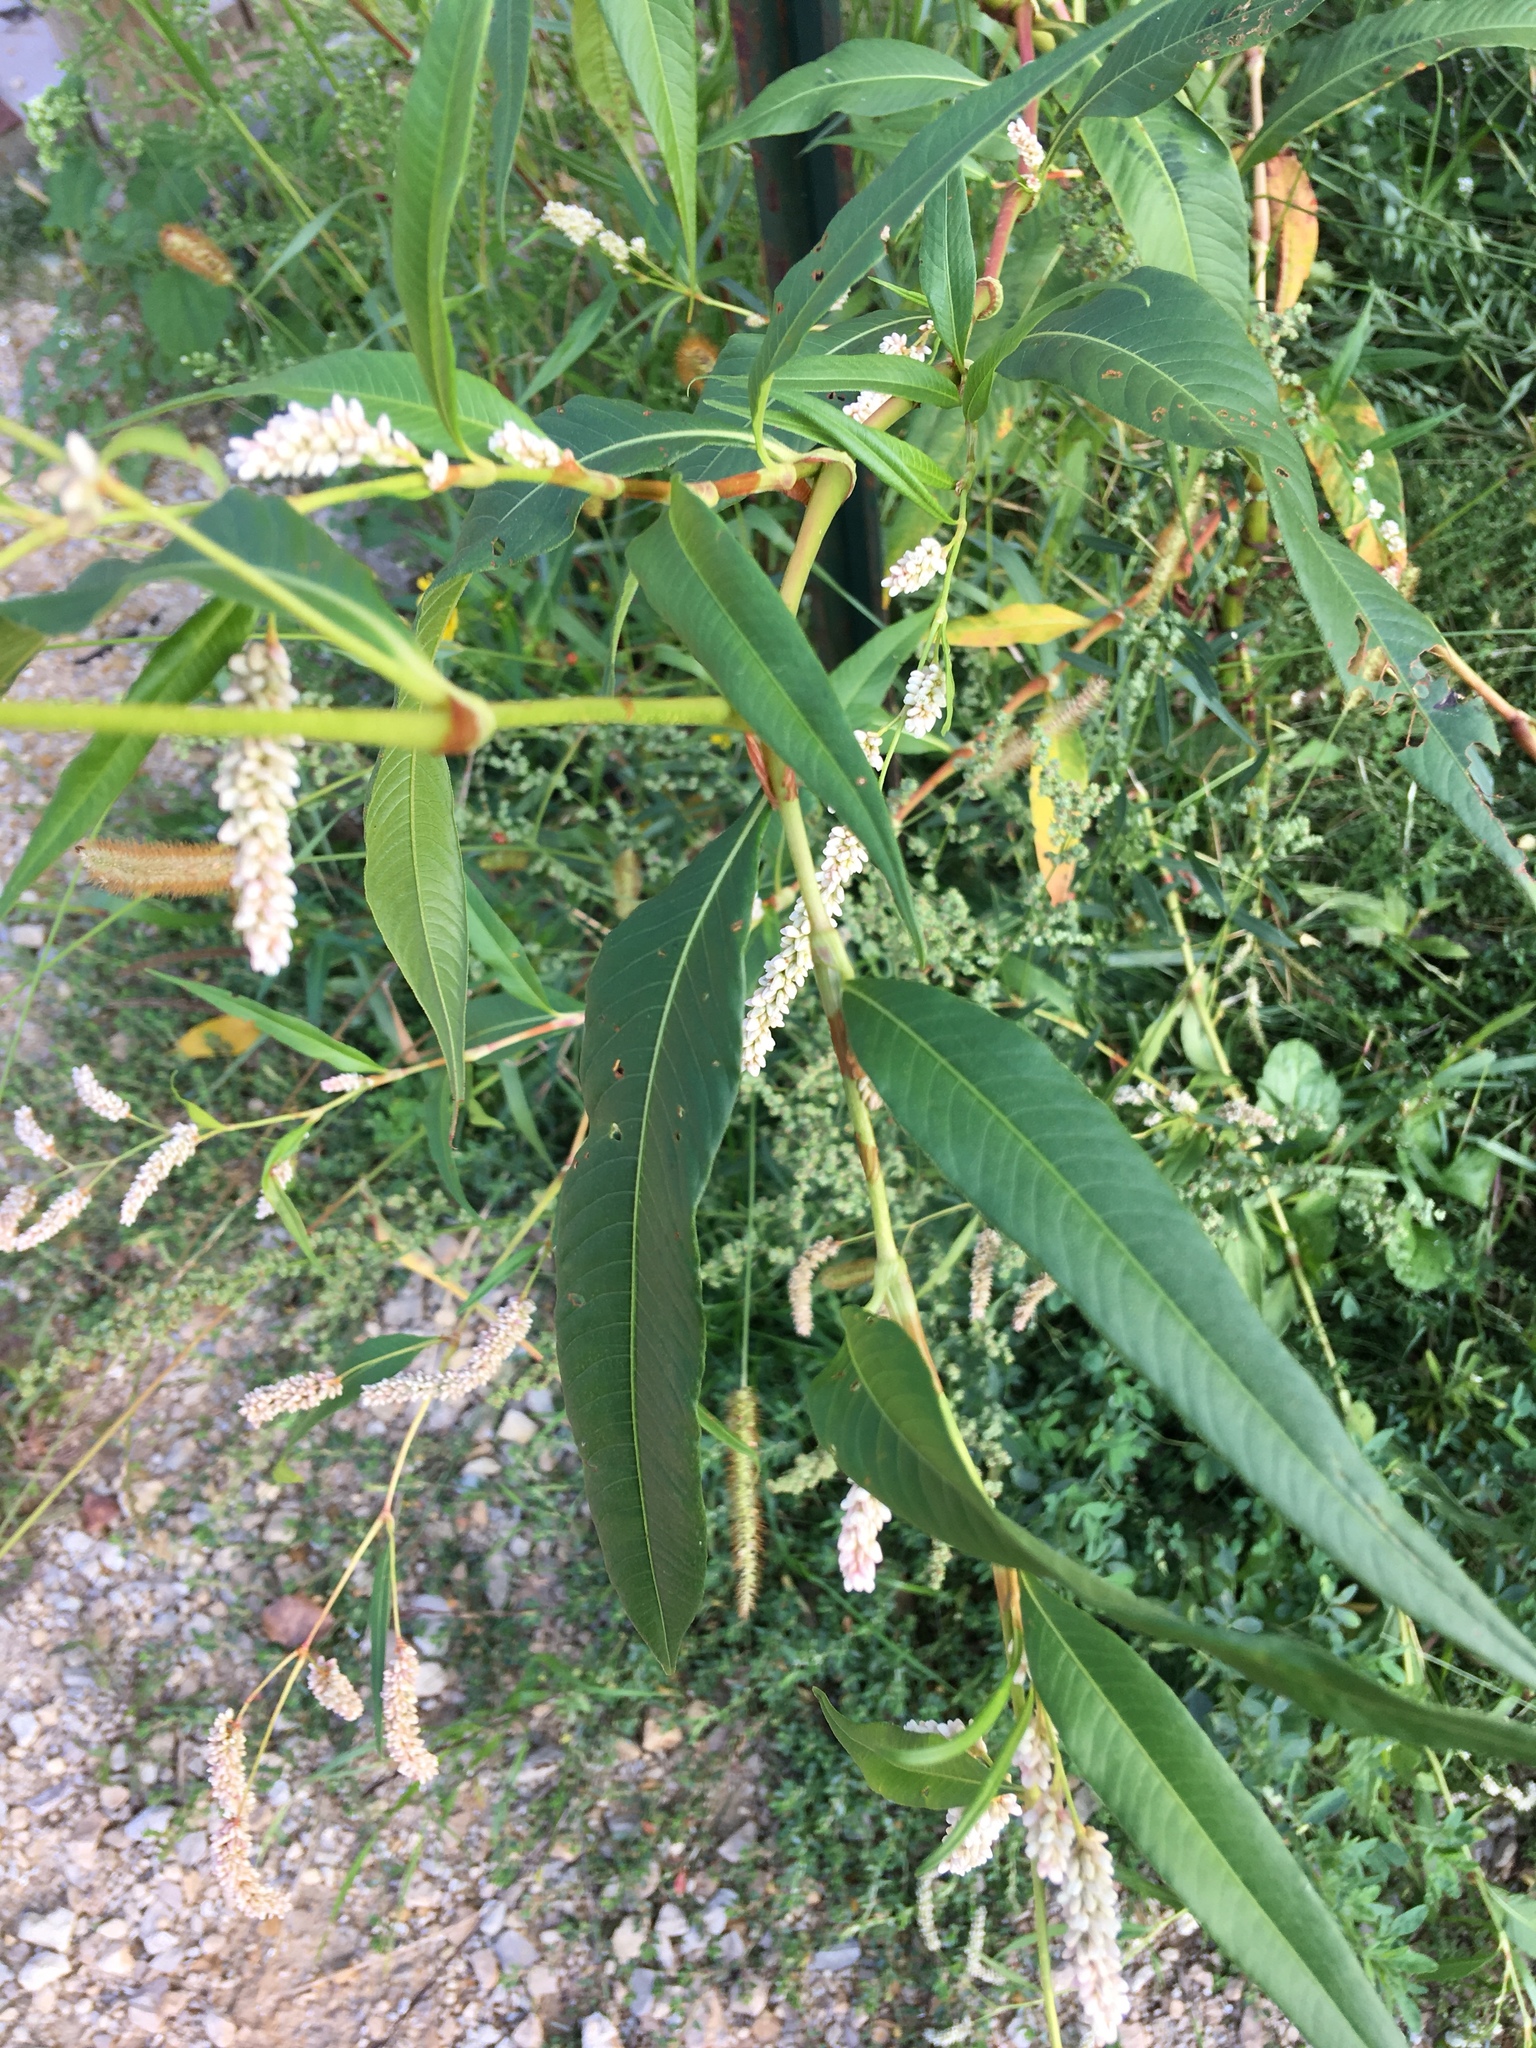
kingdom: Plantae
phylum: Tracheophyta
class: Magnoliopsida
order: Caryophyllales
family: Polygonaceae
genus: Persicaria
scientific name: Persicaria lapathifolia
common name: Curlytop knotweed
